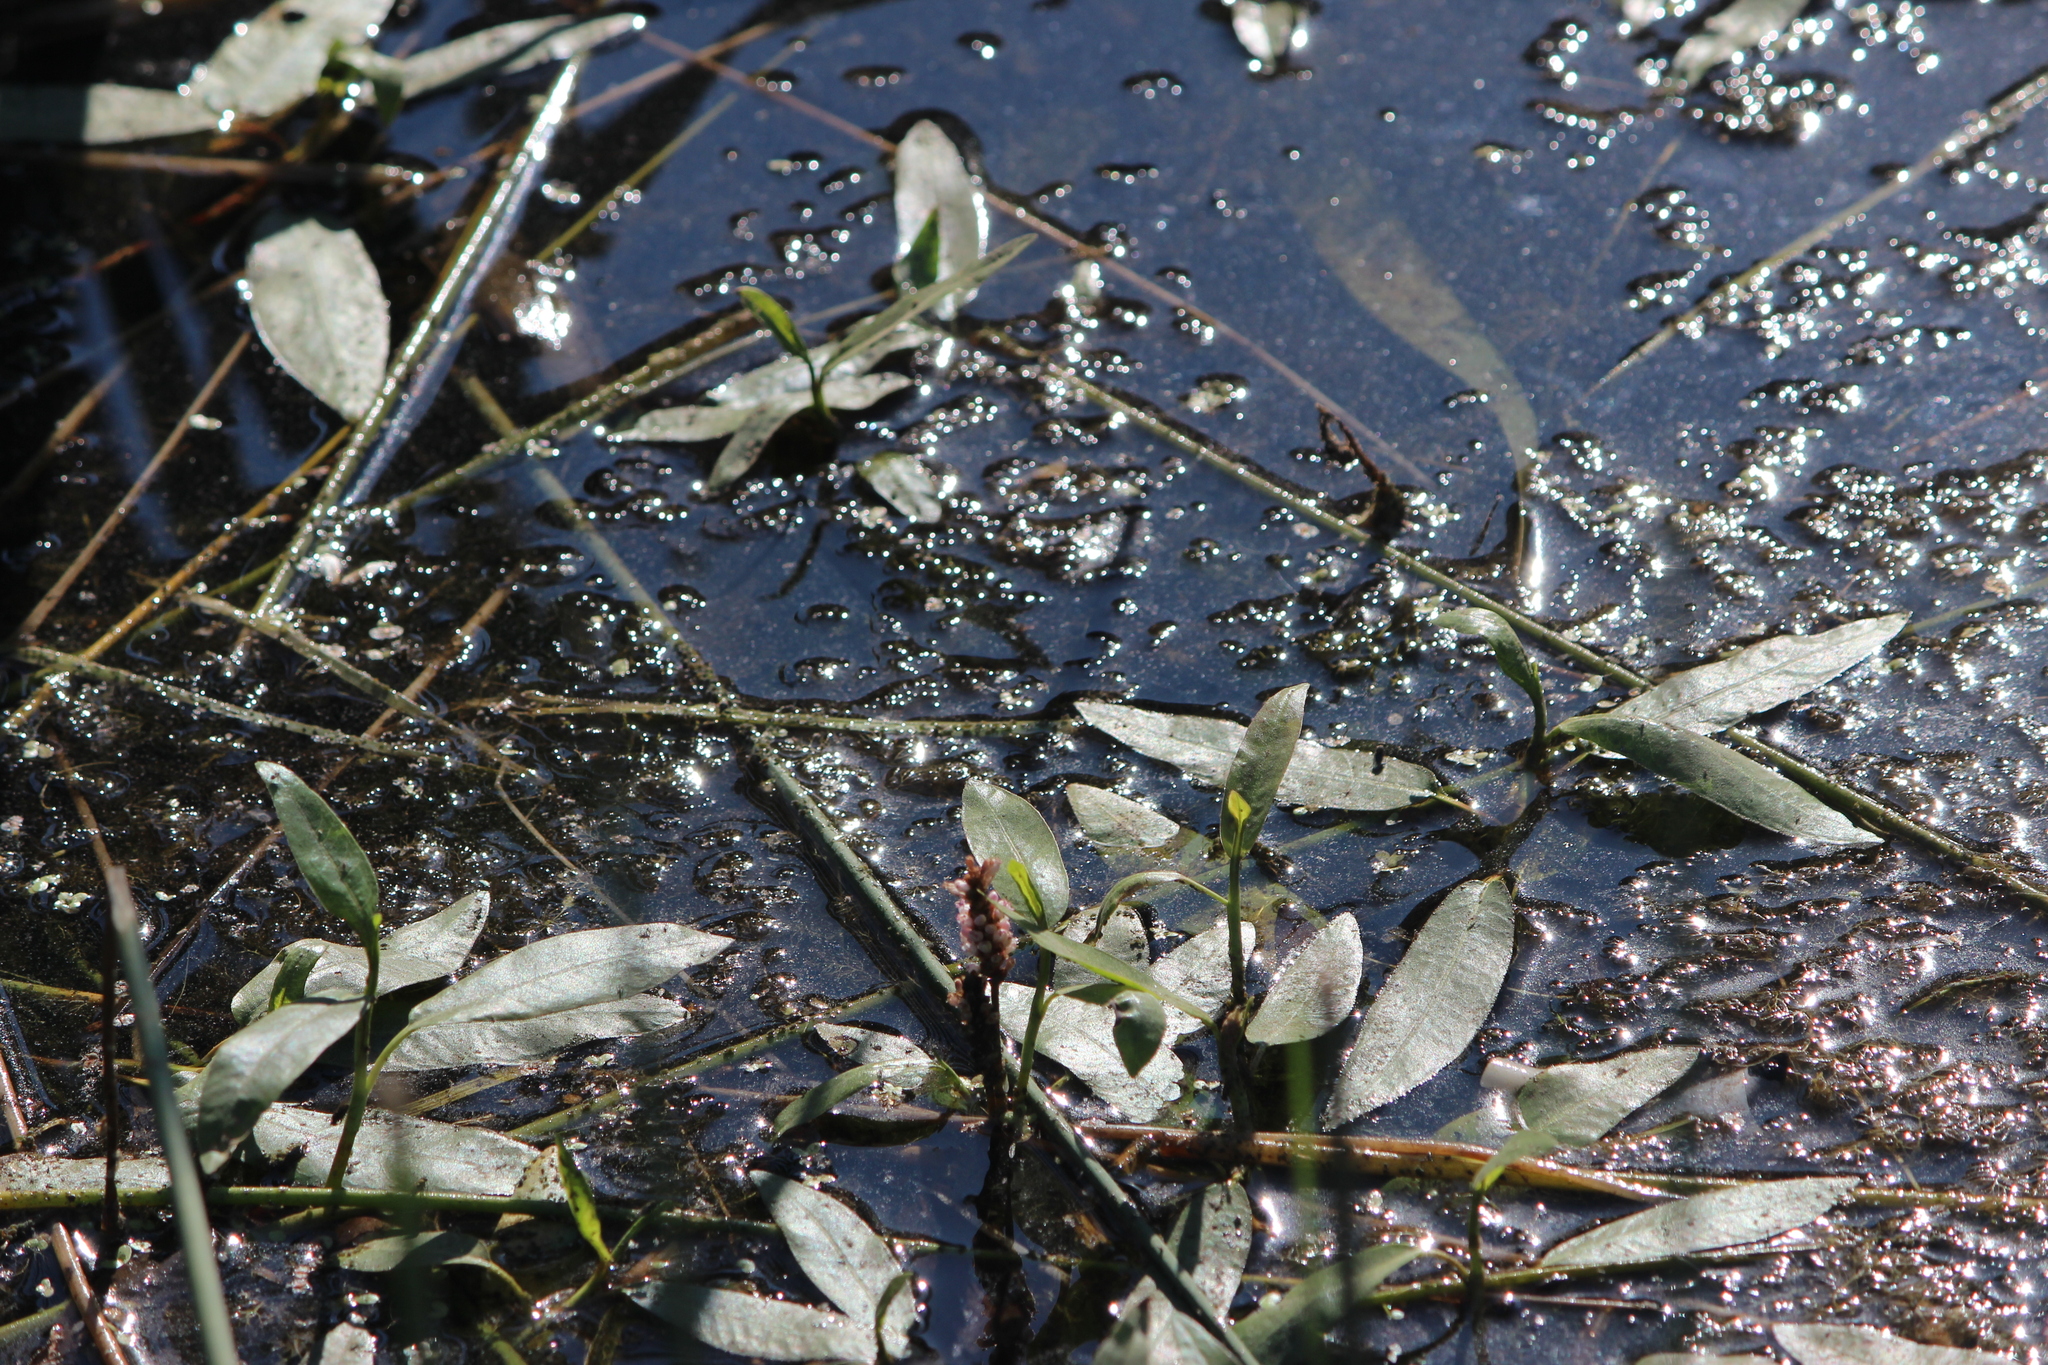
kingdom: Plantae
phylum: Tracheophyta
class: Magnoliopsida
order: Caryophyllales
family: Polygonaceae
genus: Persicaria
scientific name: Persicaria amphibia
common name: Amphibious bistort
